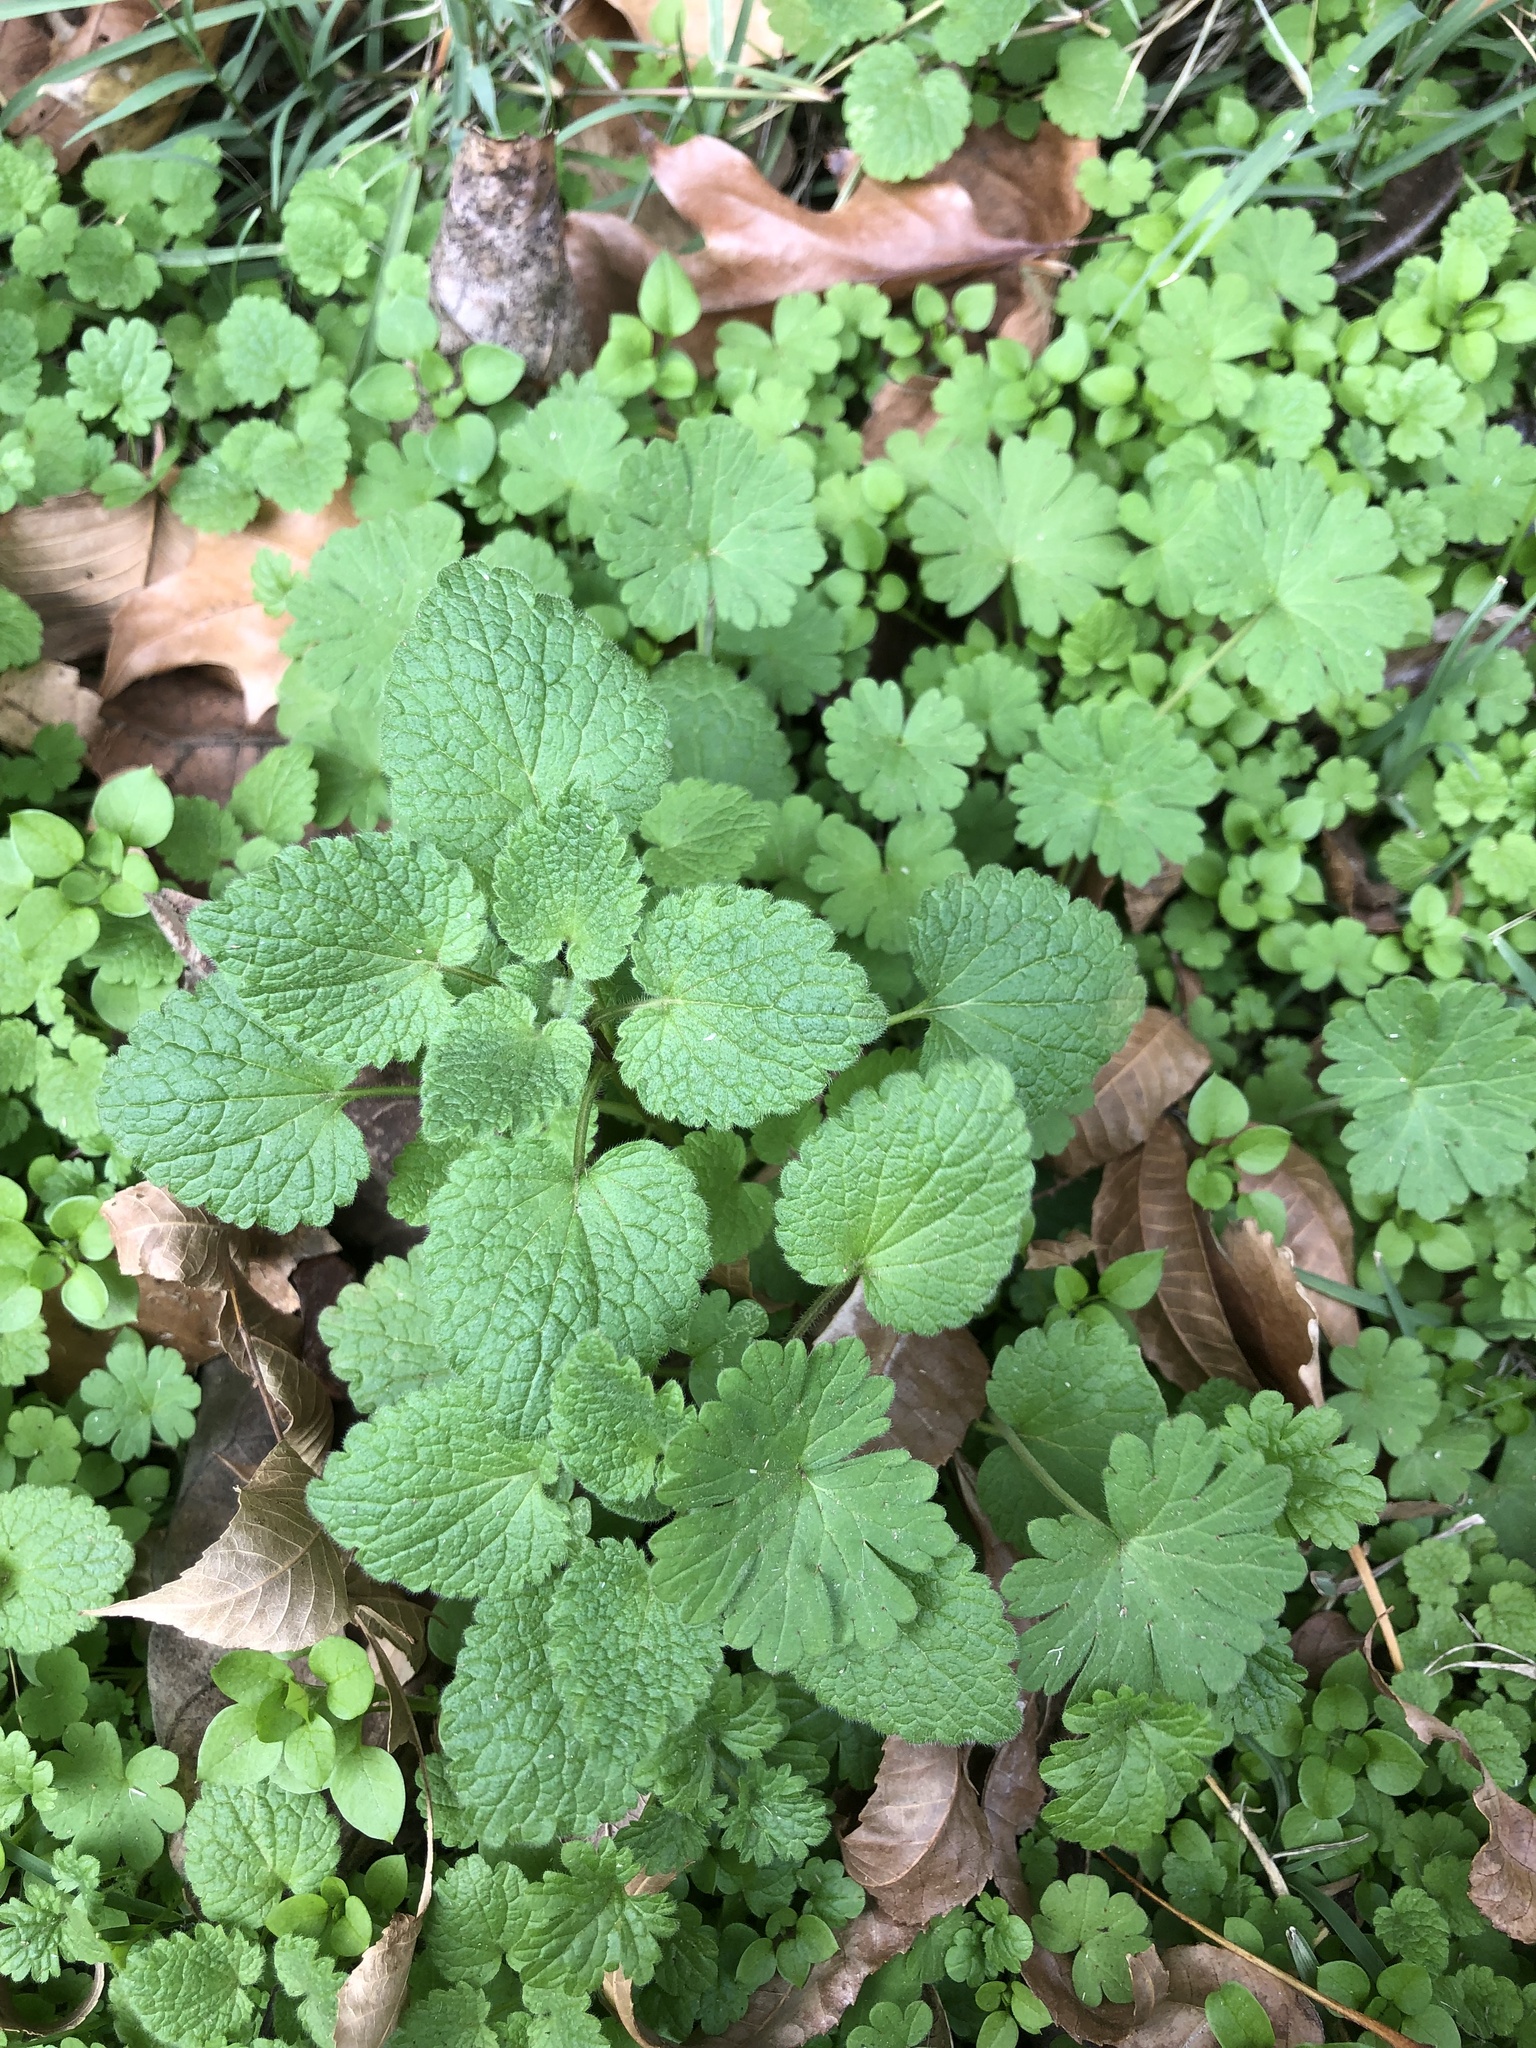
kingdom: Plantae
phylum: Tracheophyta
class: Magnoliopsida
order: Lamiales
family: Lamiaceae
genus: Lamium
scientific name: Lamium purpureum
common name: Red dead-nettle
